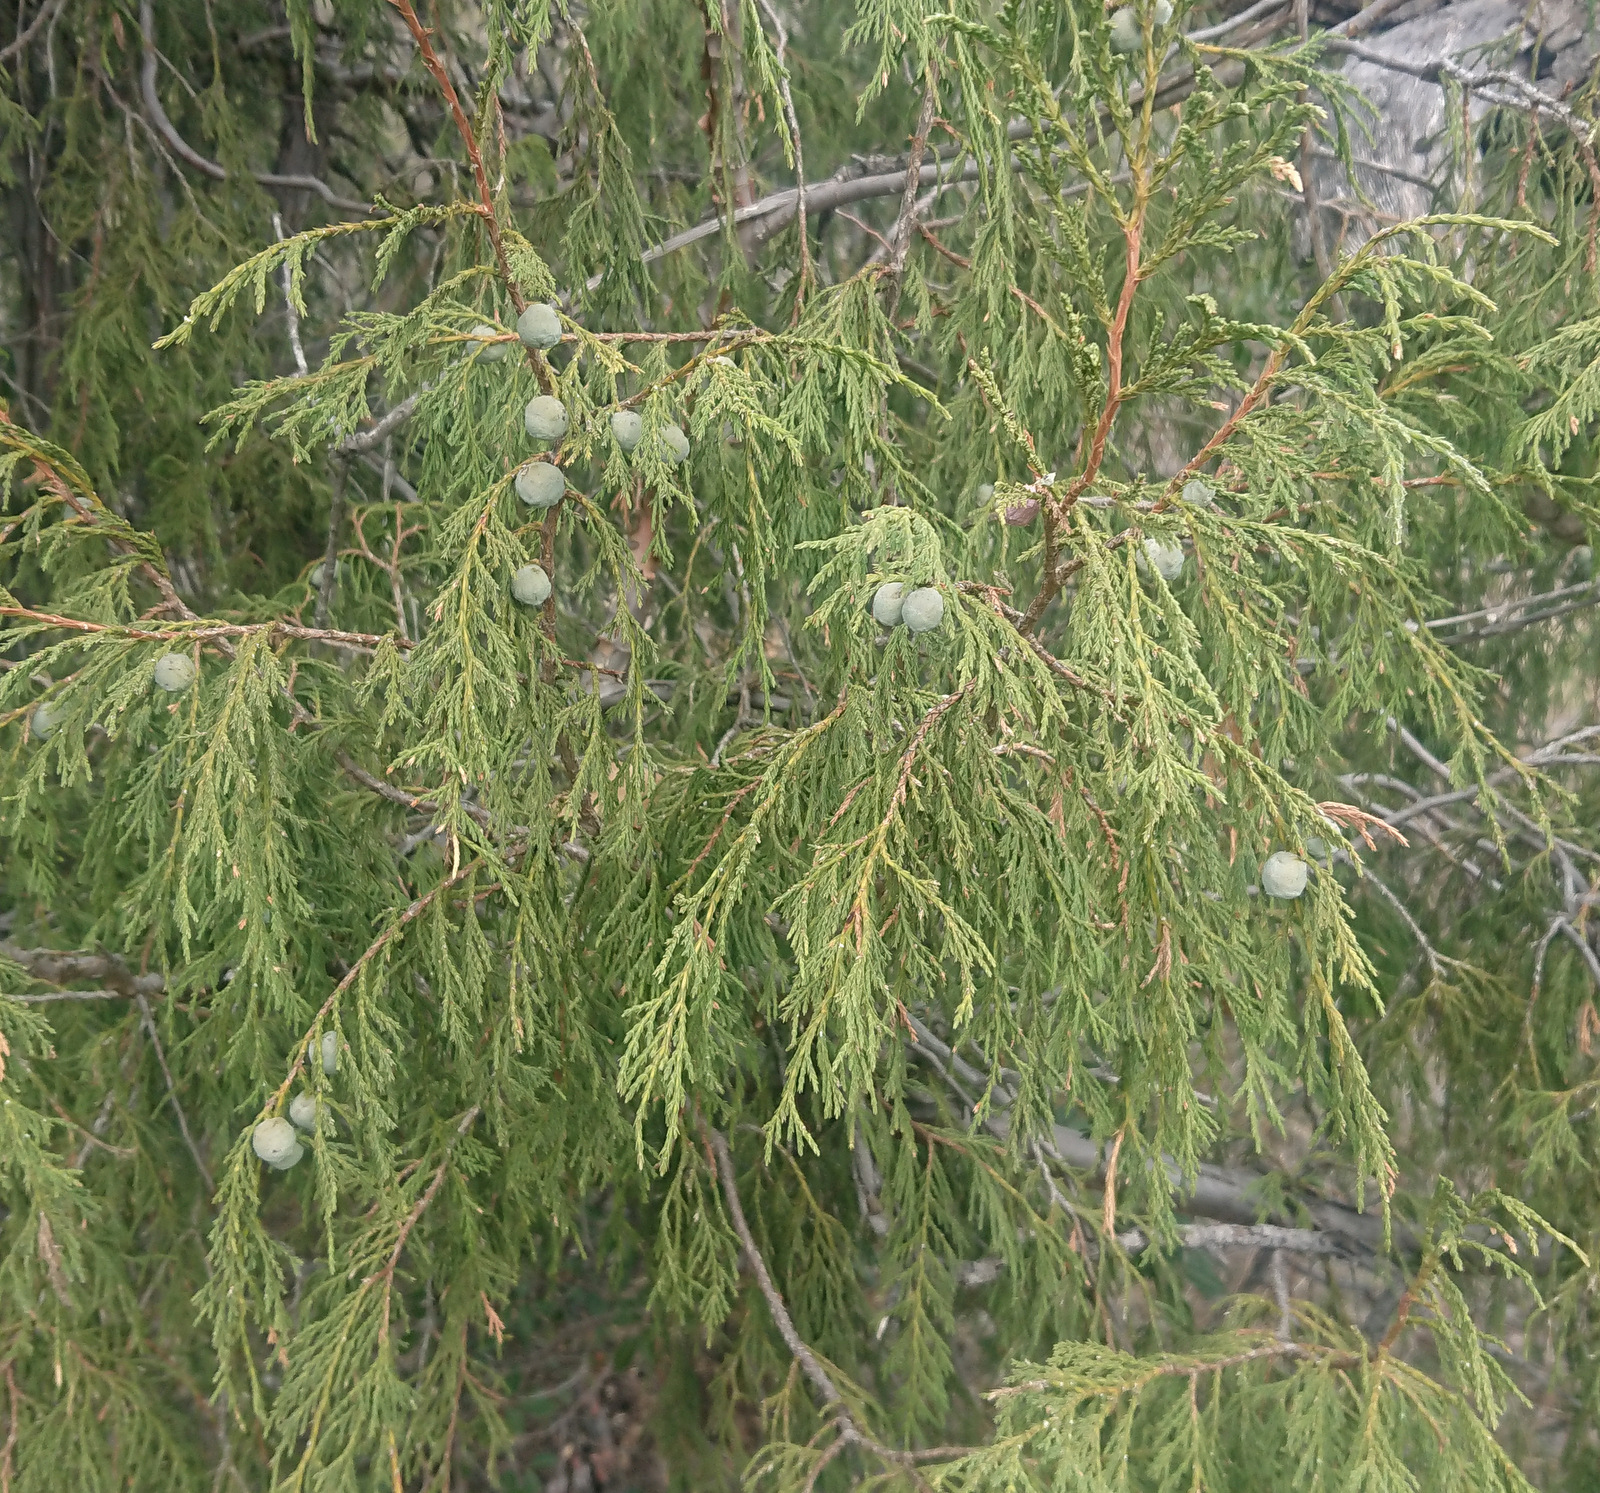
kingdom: Plantae
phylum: Tracheophyta
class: Pinopsida
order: Pinales
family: Cupressaceae
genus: Juniperus
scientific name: Juniperus flaccida
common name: Drooping juniper
